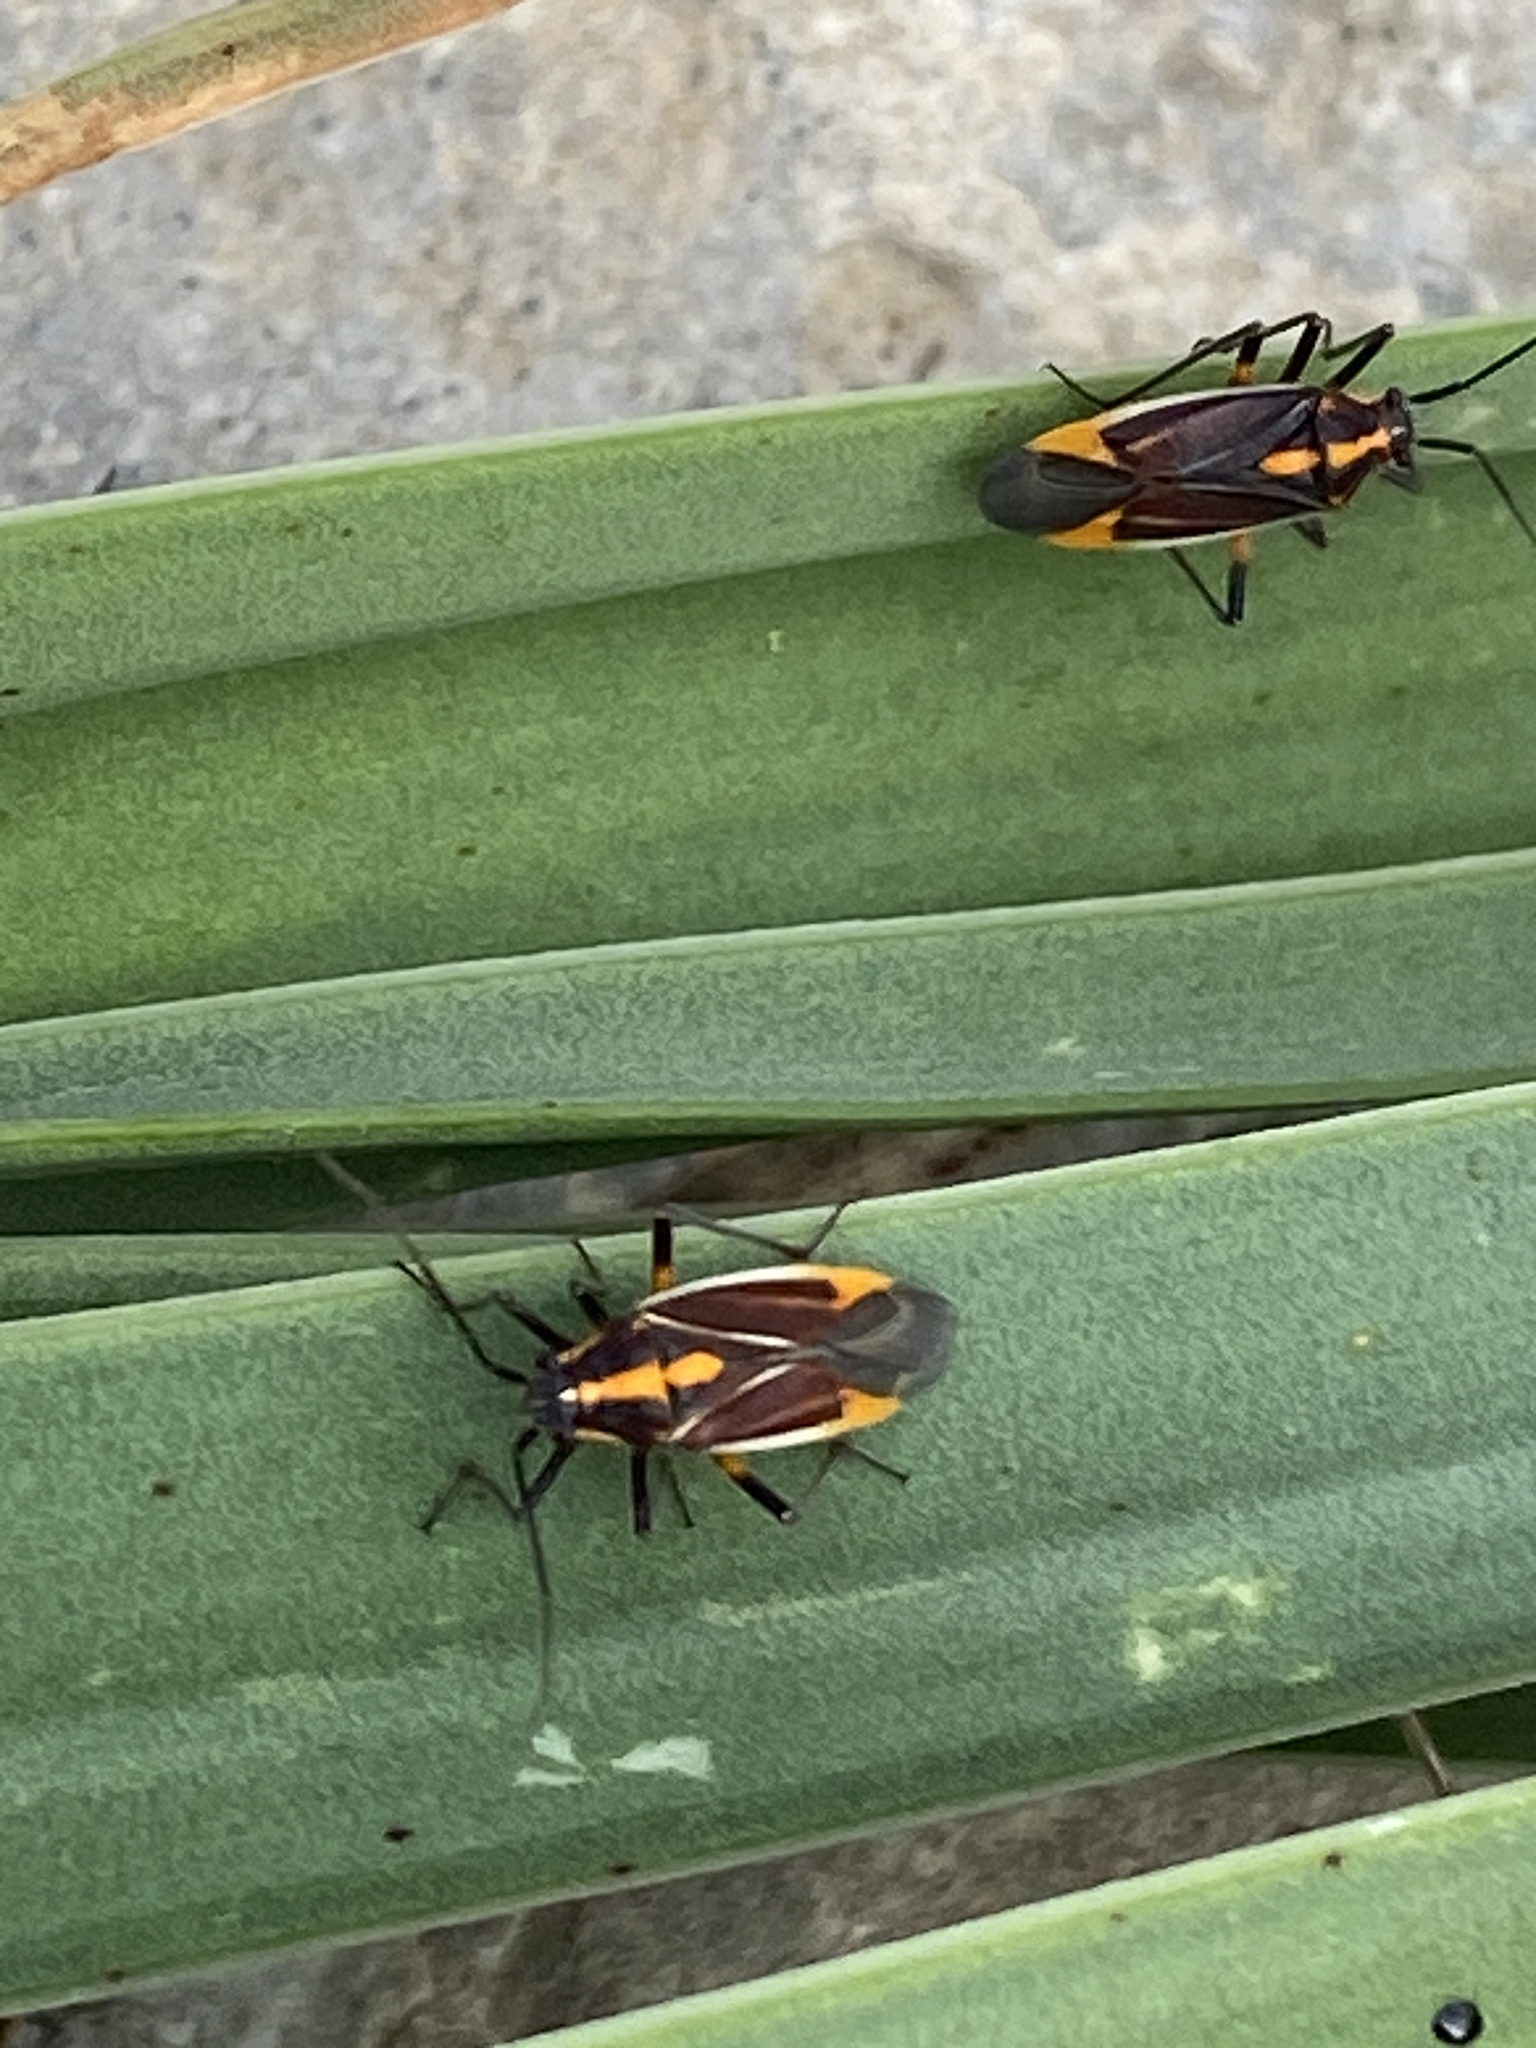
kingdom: Animalia
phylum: Arthropoda
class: Insecta
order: Hemiptera
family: Miridae
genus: Horistus
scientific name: Horistus orientalis
